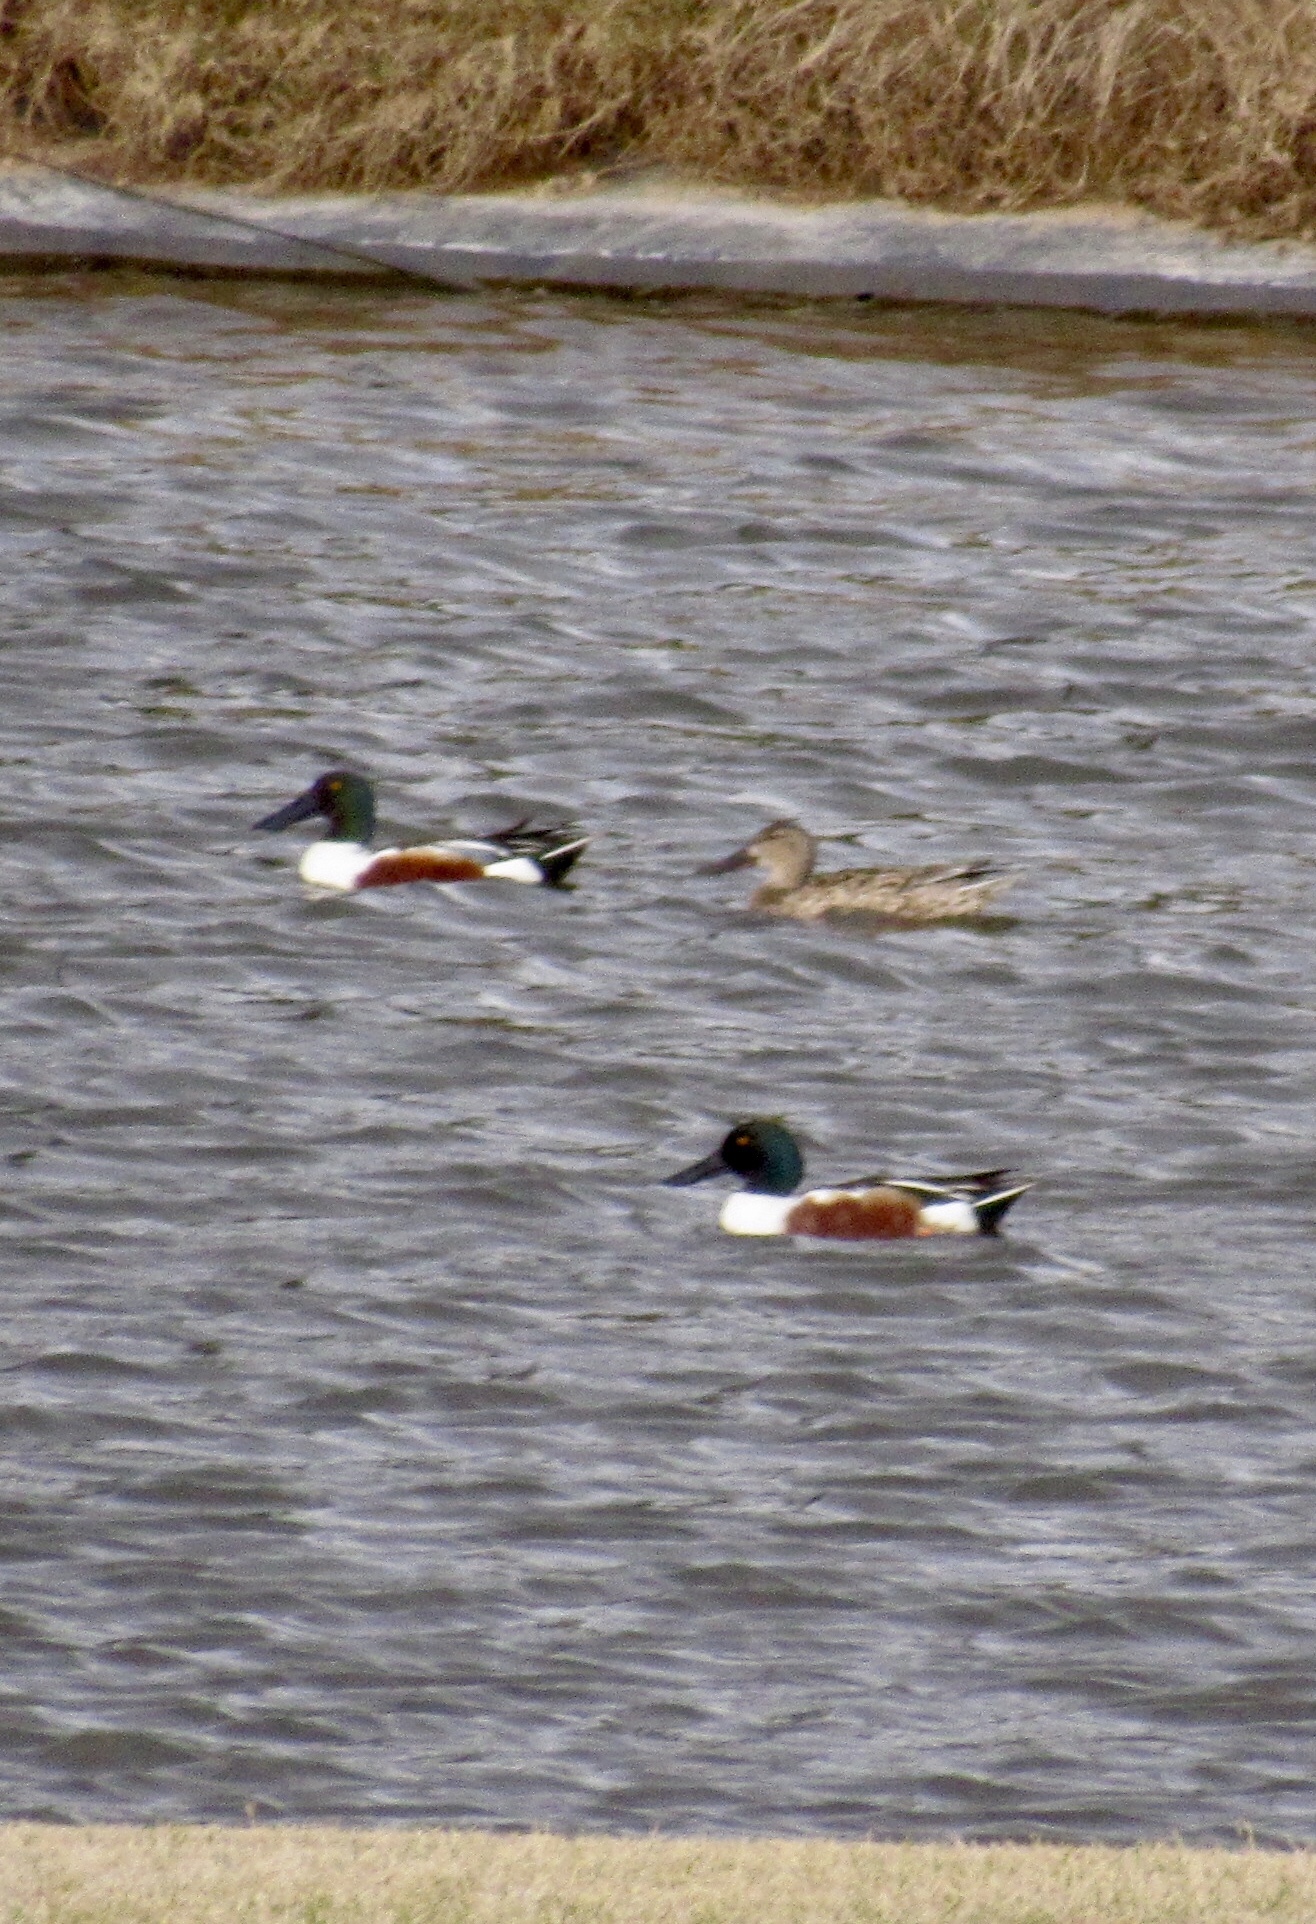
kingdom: Animalia
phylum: Chordata
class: Aves
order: Anseriformes
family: Anatidae
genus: Spatula
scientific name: Spatula clypeata
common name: Northern shoveler
